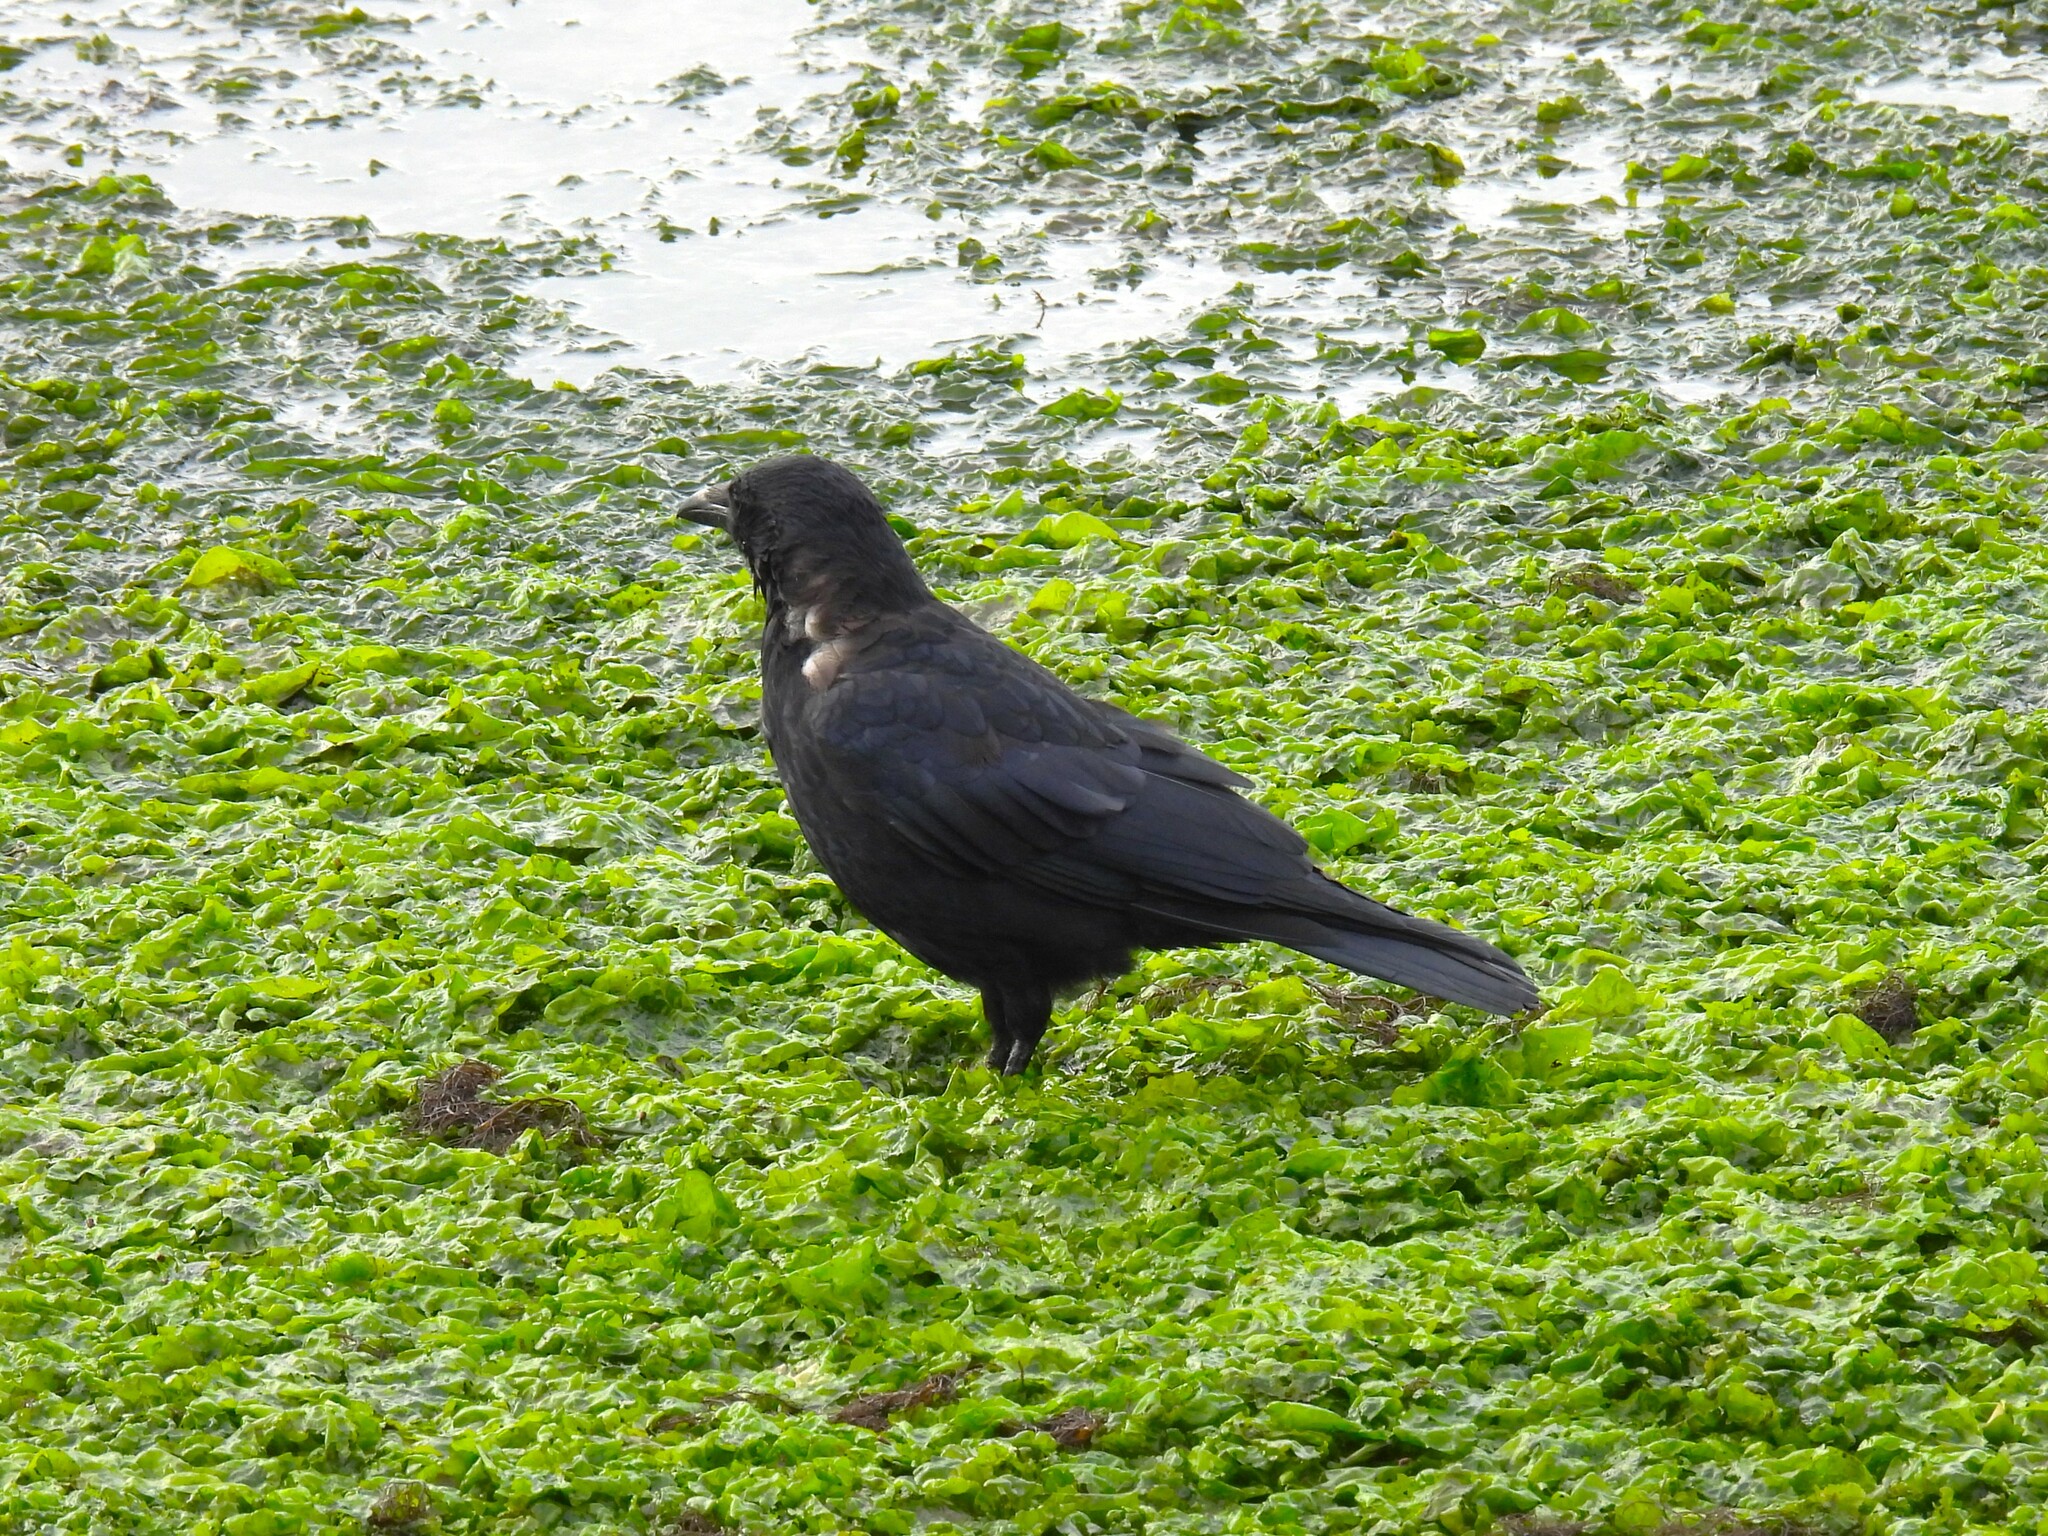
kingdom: Animalia
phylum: Chordata
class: Aves
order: Passeriformes
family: Corvidae
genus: Corvus
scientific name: Corvus corone
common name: Carrion crow
